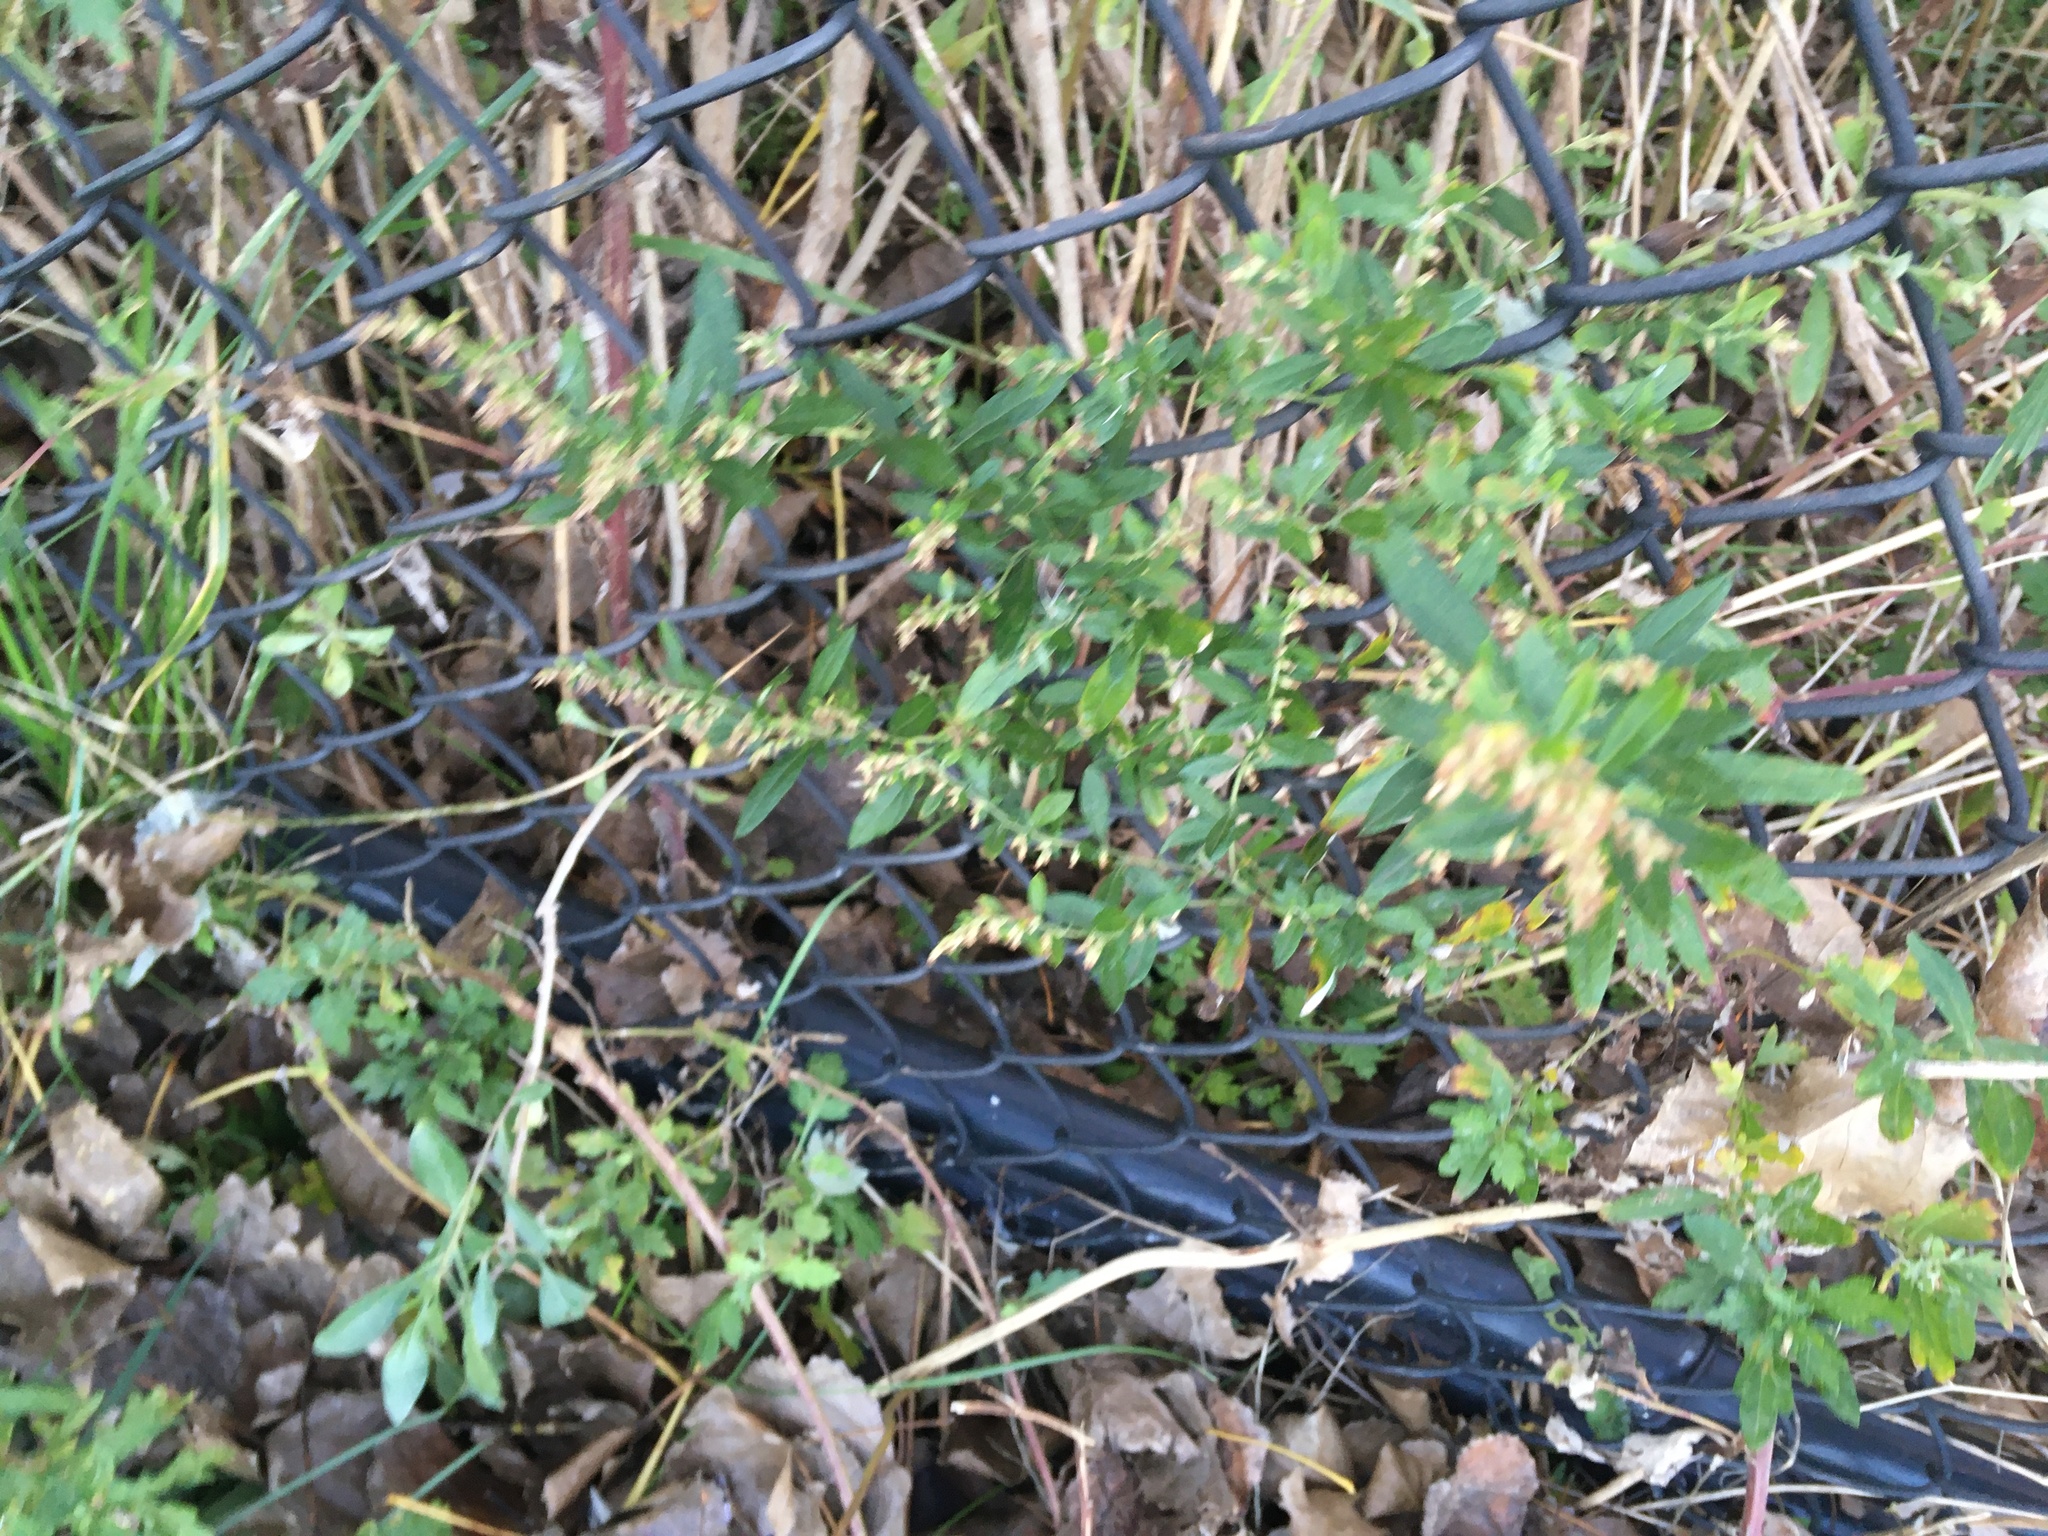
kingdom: Plantae
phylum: Tracheophyta
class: Magnoliopsida
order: Asterales
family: Asteraceae
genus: Artemisia
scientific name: Artemisia vulgaris
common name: Mugwort
